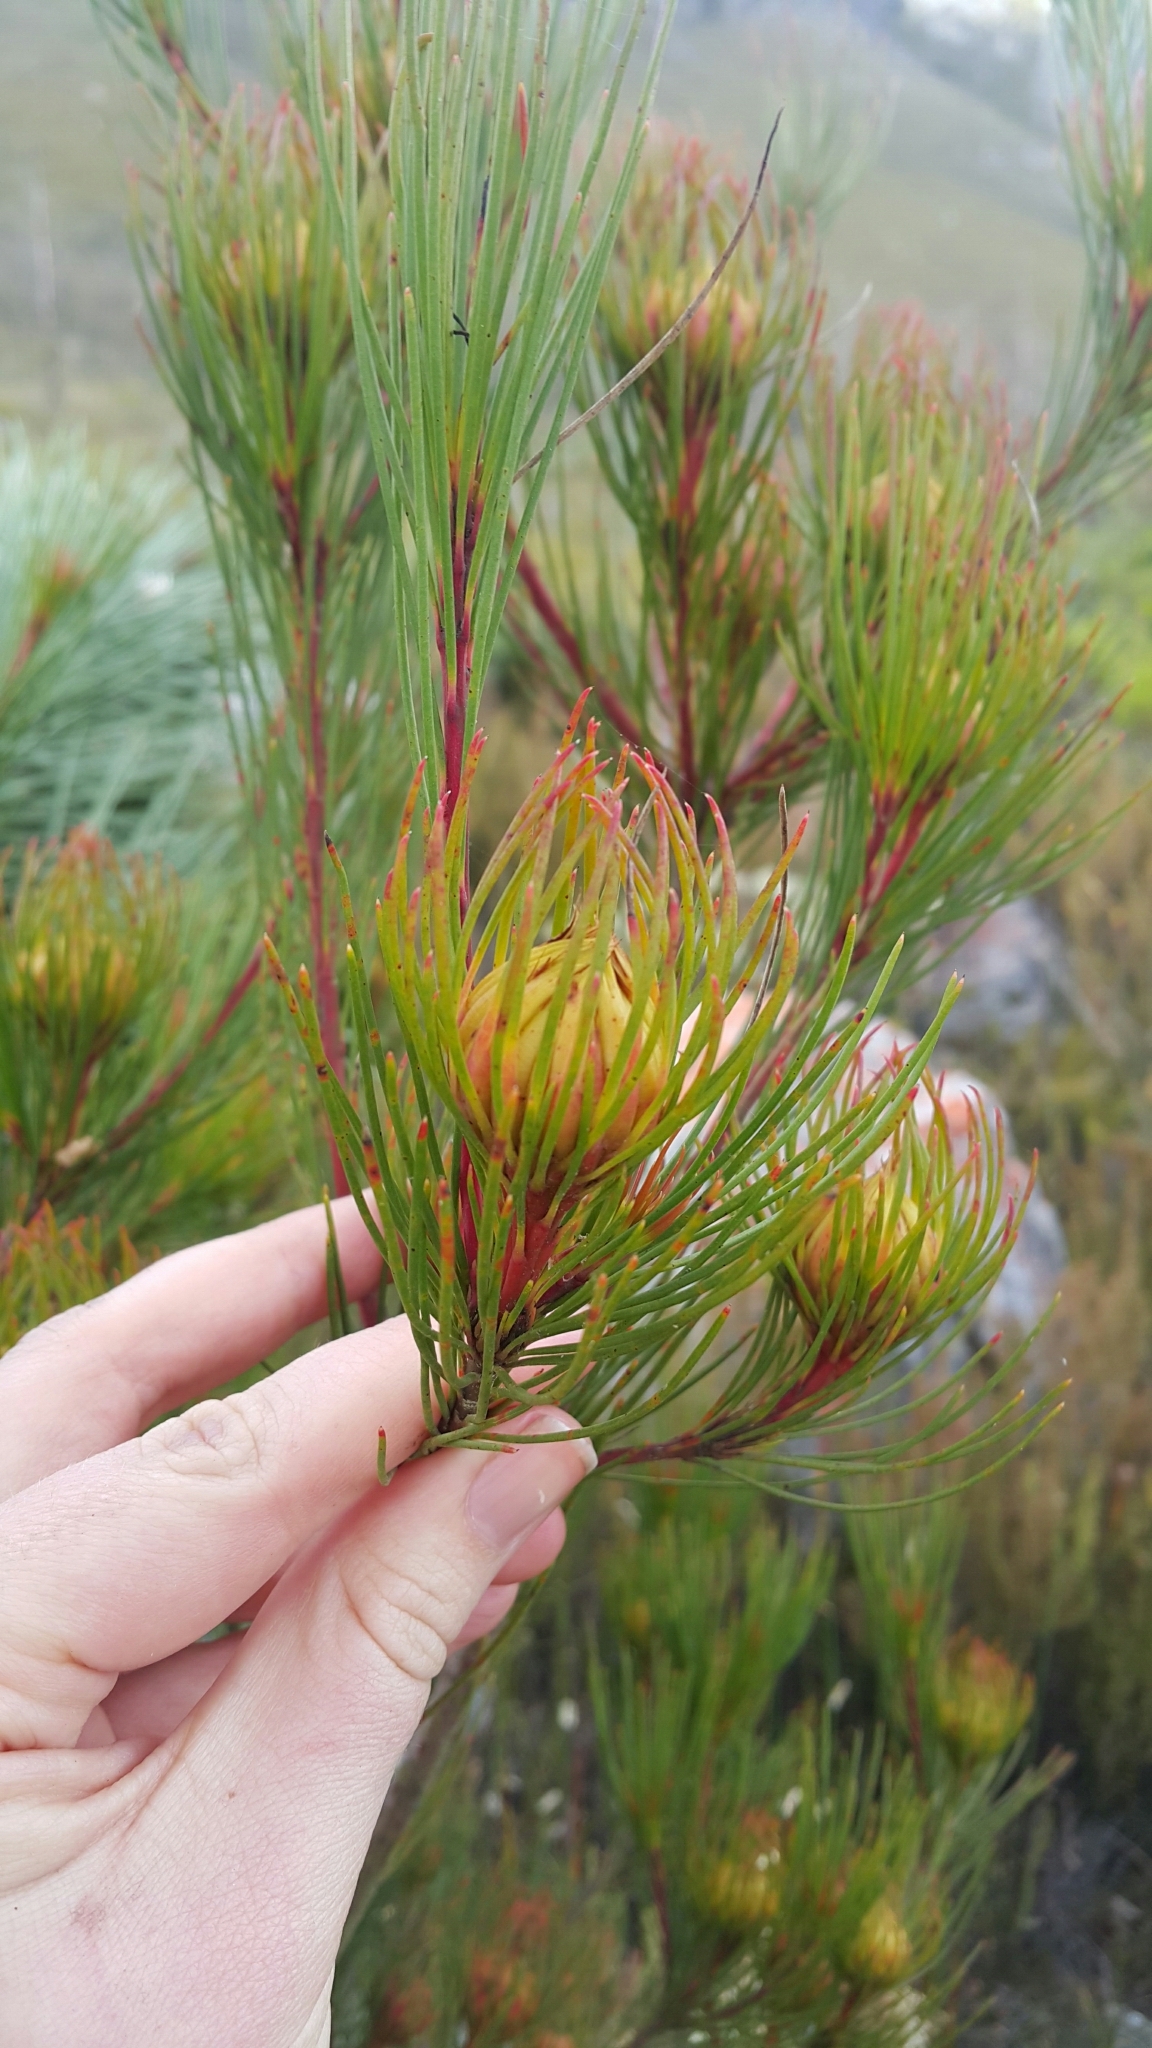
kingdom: Plantae
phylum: Tracheophyta
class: Magnoliopsida
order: Proteales
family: Proteaceae
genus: Aulax
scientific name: Aulax pallasia
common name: Needle-leaf featherbush
